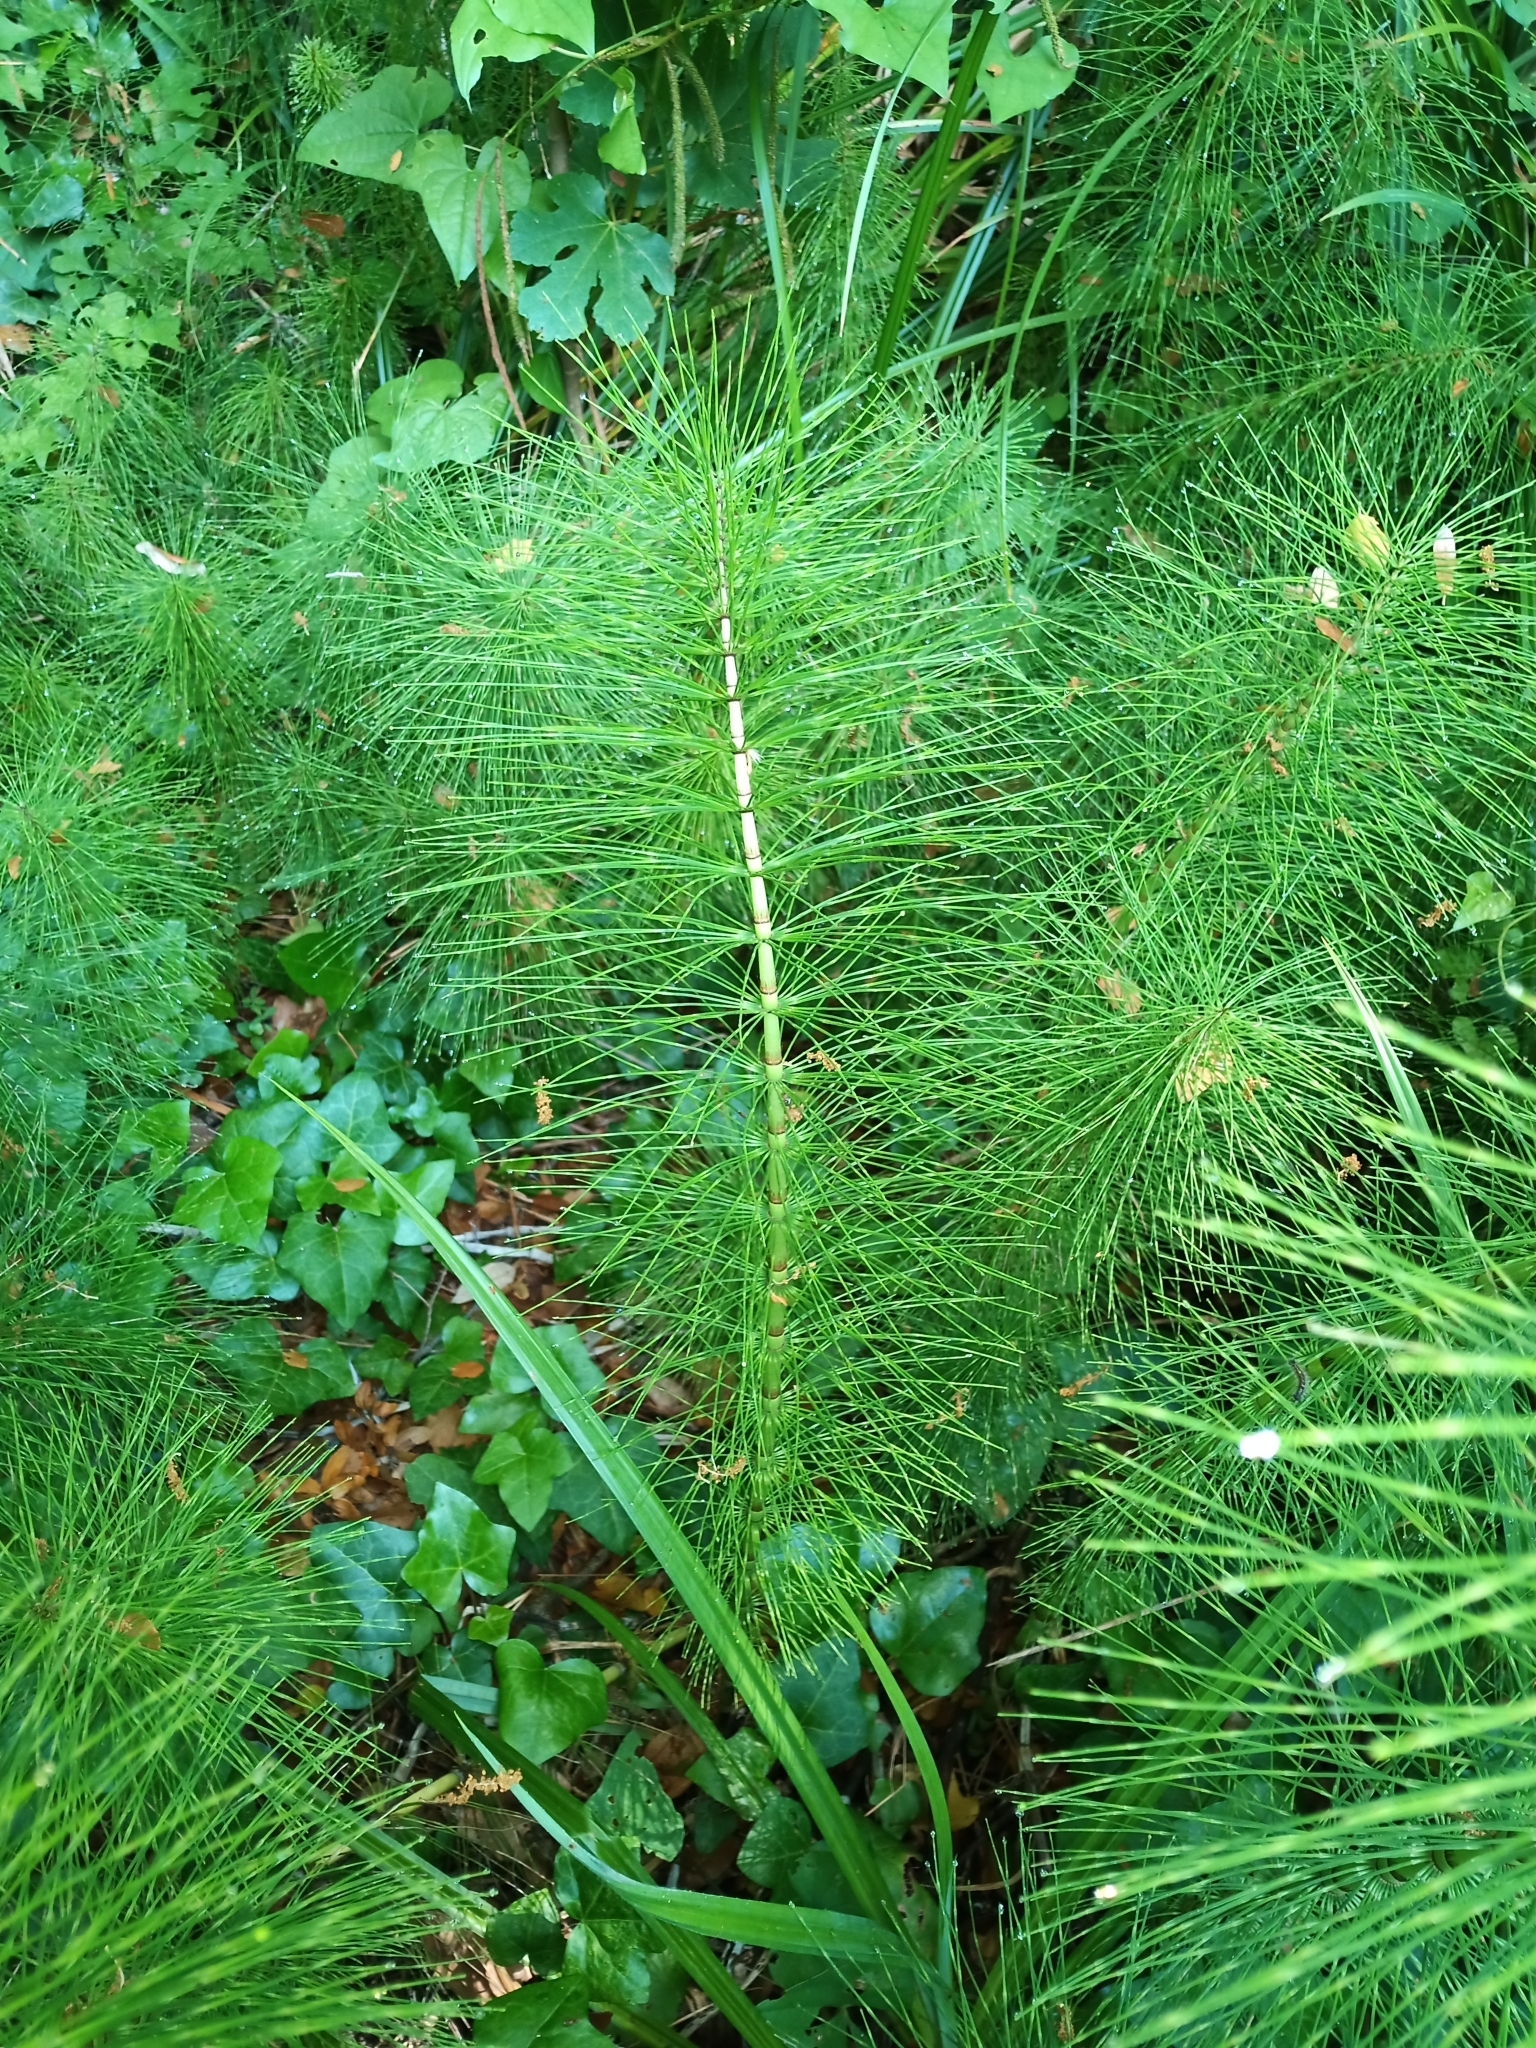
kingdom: Plantae
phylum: Tracheophyta
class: Polypodiopsida
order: Equisetales
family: Equisetaceae
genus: Equisetum
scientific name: Equisetum telmateia
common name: Great horsetail
